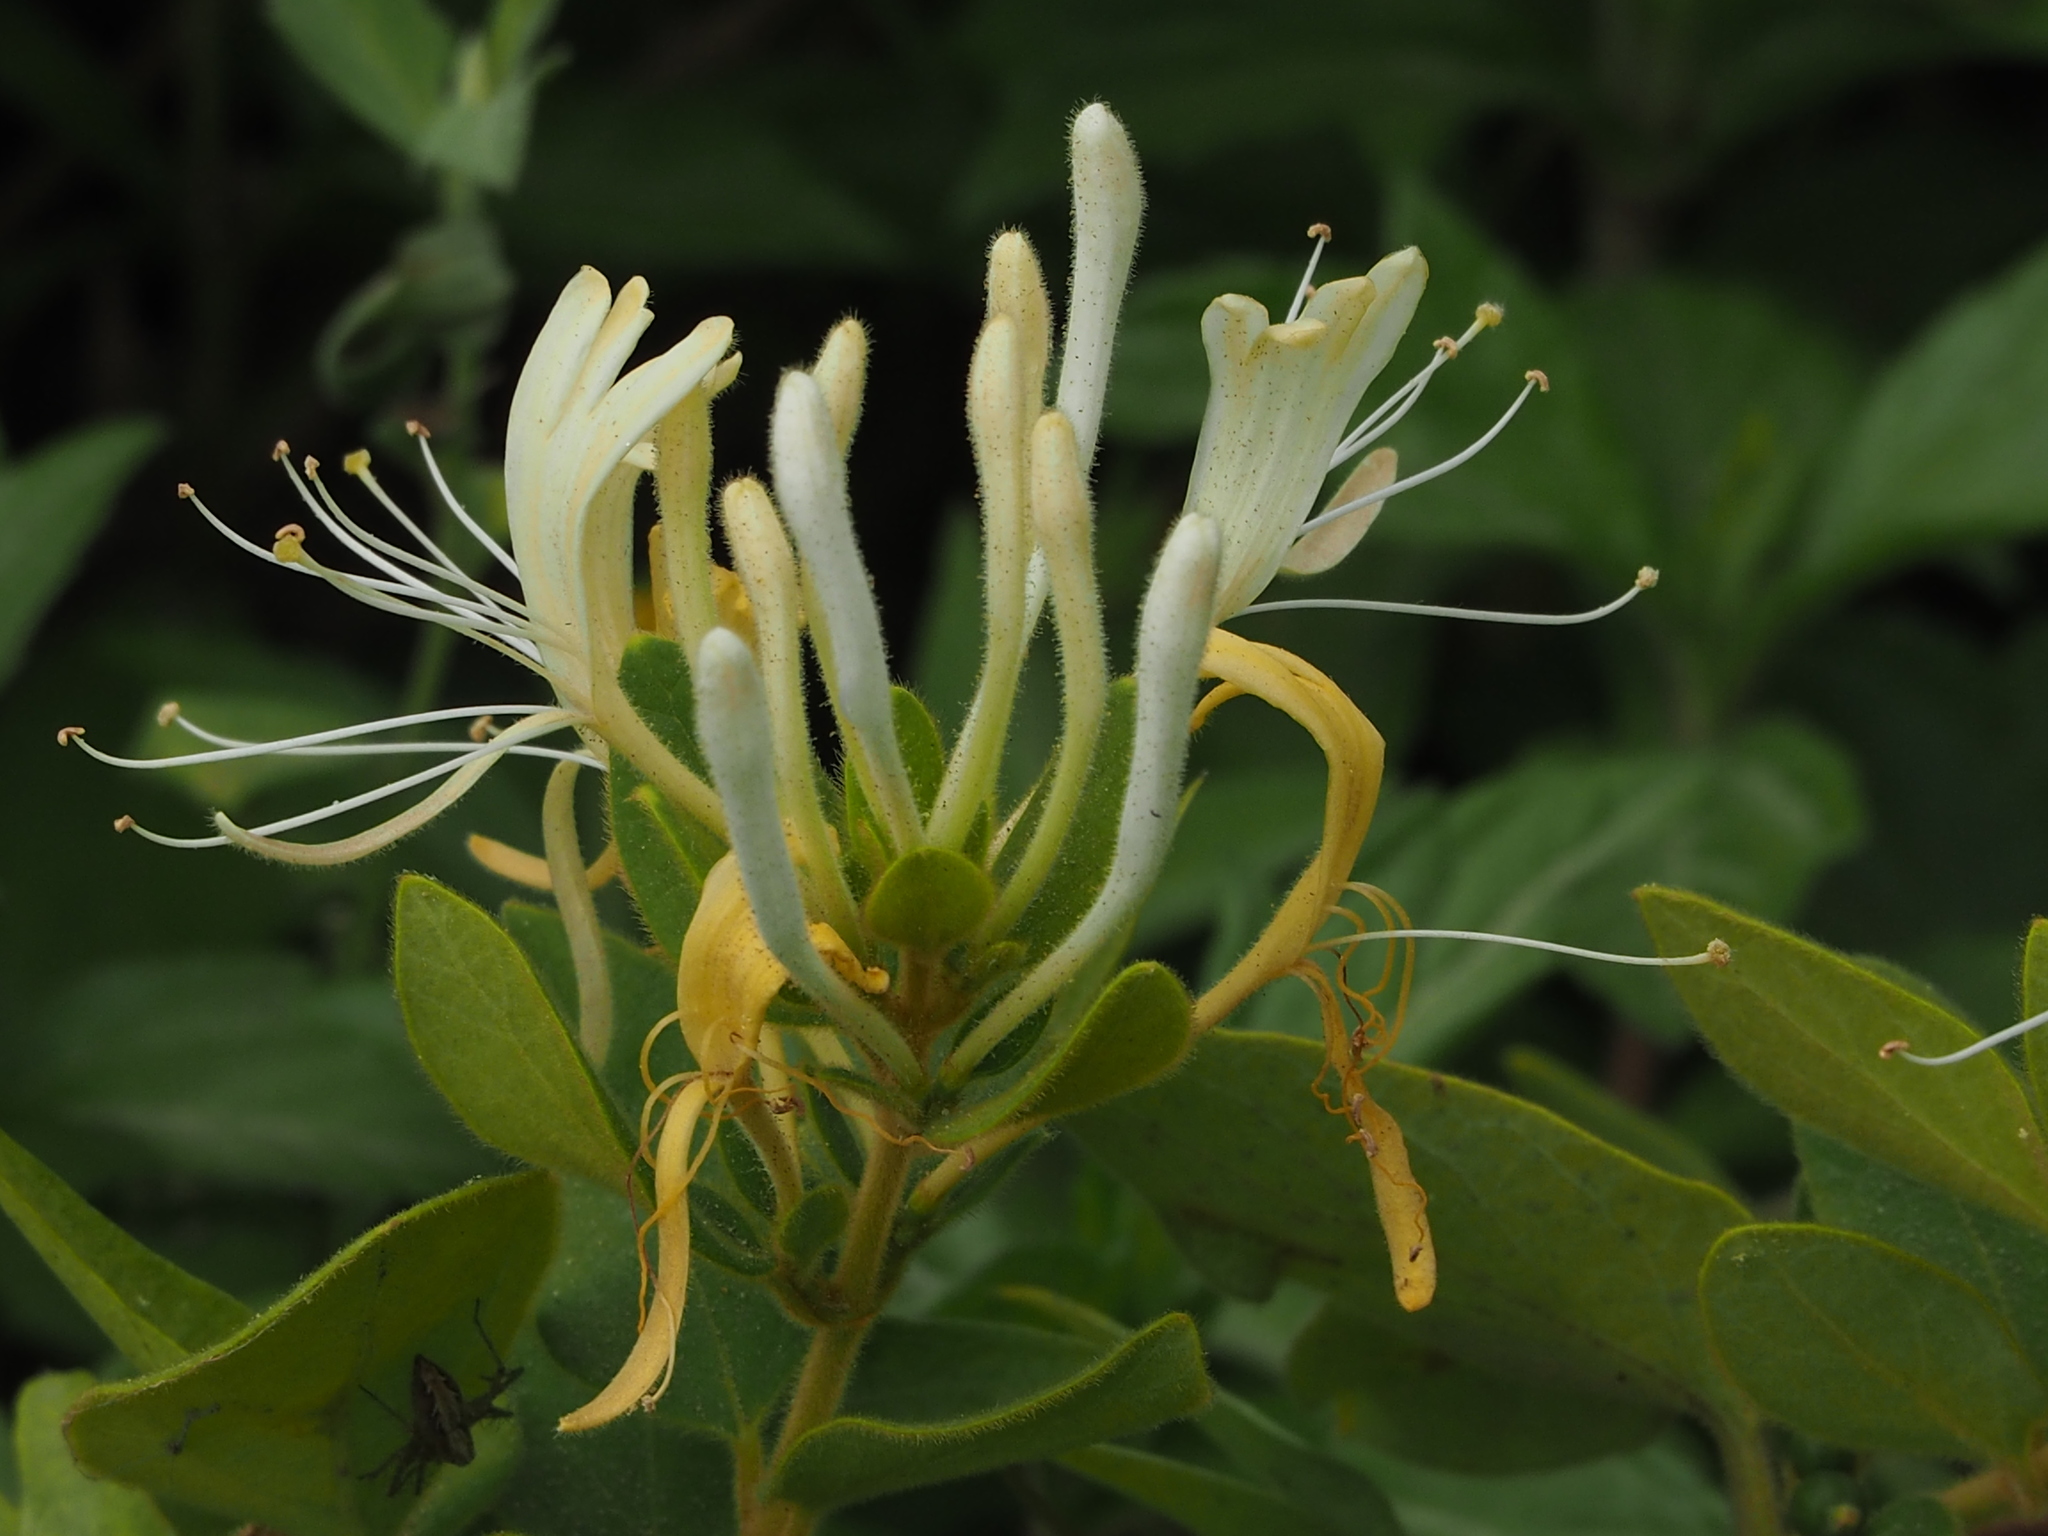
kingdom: Plantae
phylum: Tracheophyta
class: Magnoliopsida
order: Dipsacales
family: Caprifoliaceae
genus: Lonicera
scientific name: Lonicera japonica
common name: Japanese honeysuckle
